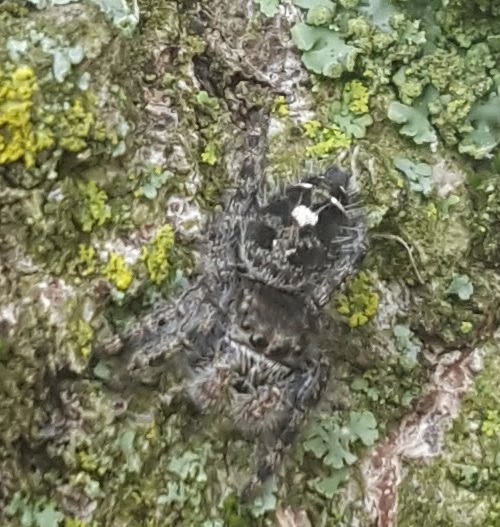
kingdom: Animalia
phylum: Arthropoda
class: Arachnida
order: Araneae
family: Salticidae
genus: Phidippus
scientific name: Phidippus audax
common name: Bold jumper
